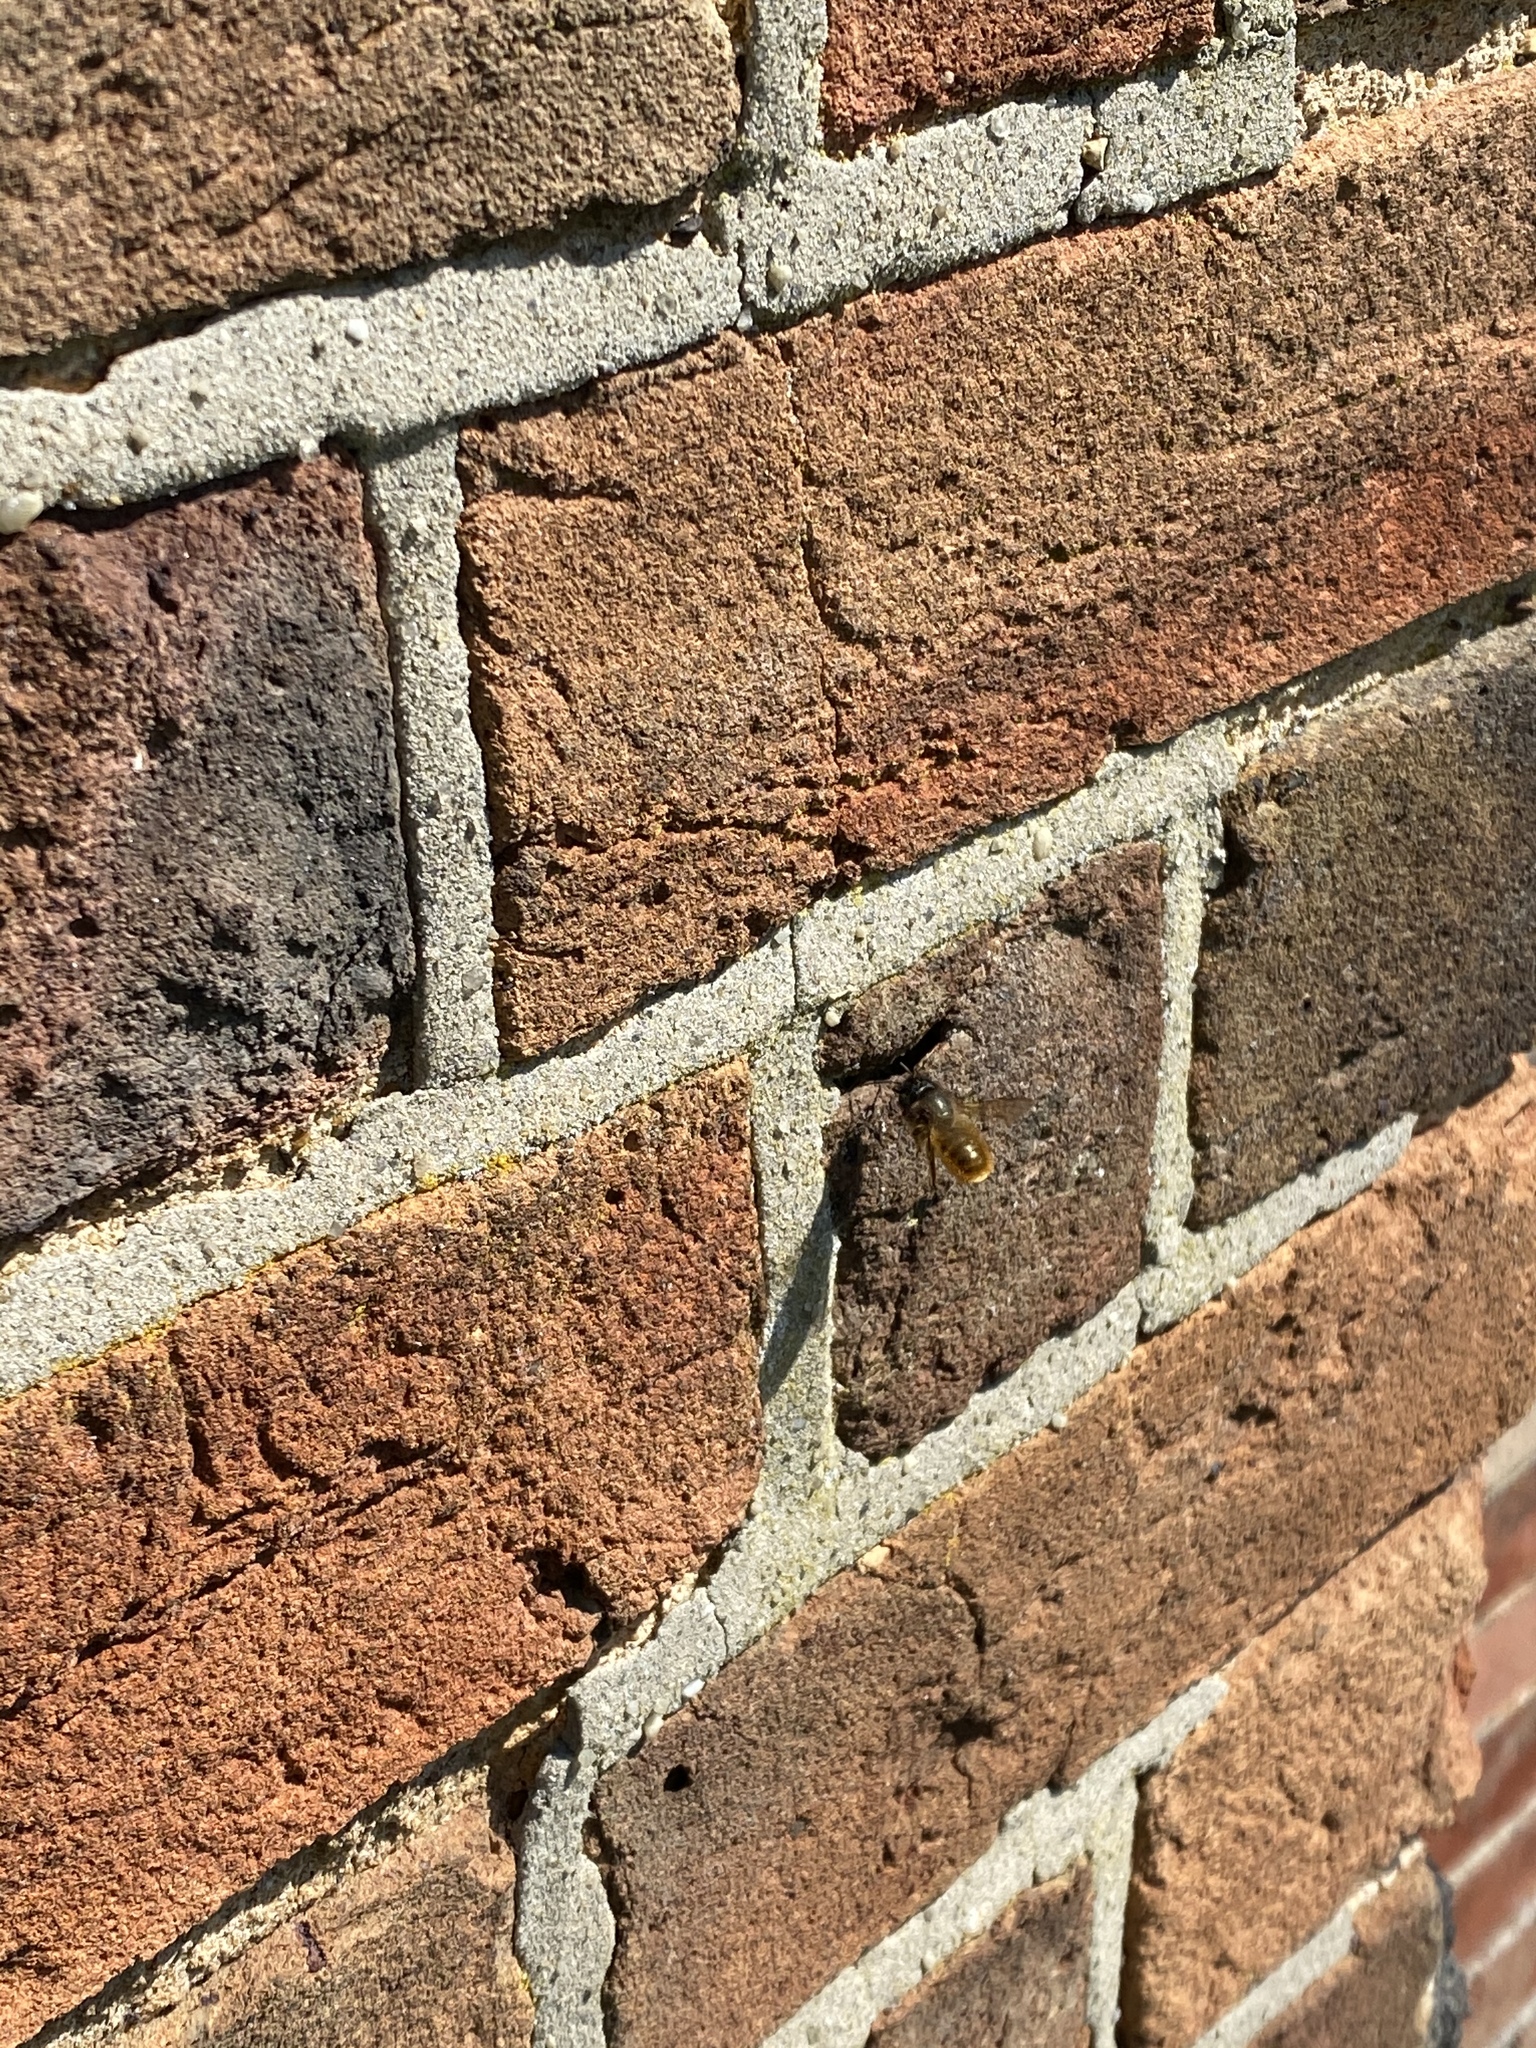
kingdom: Animalia
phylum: Arthropoda
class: Insecta
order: Hymenoptera
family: Megachilidae
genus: Osmia
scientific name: Osmia bicornis
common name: Red mason bee
